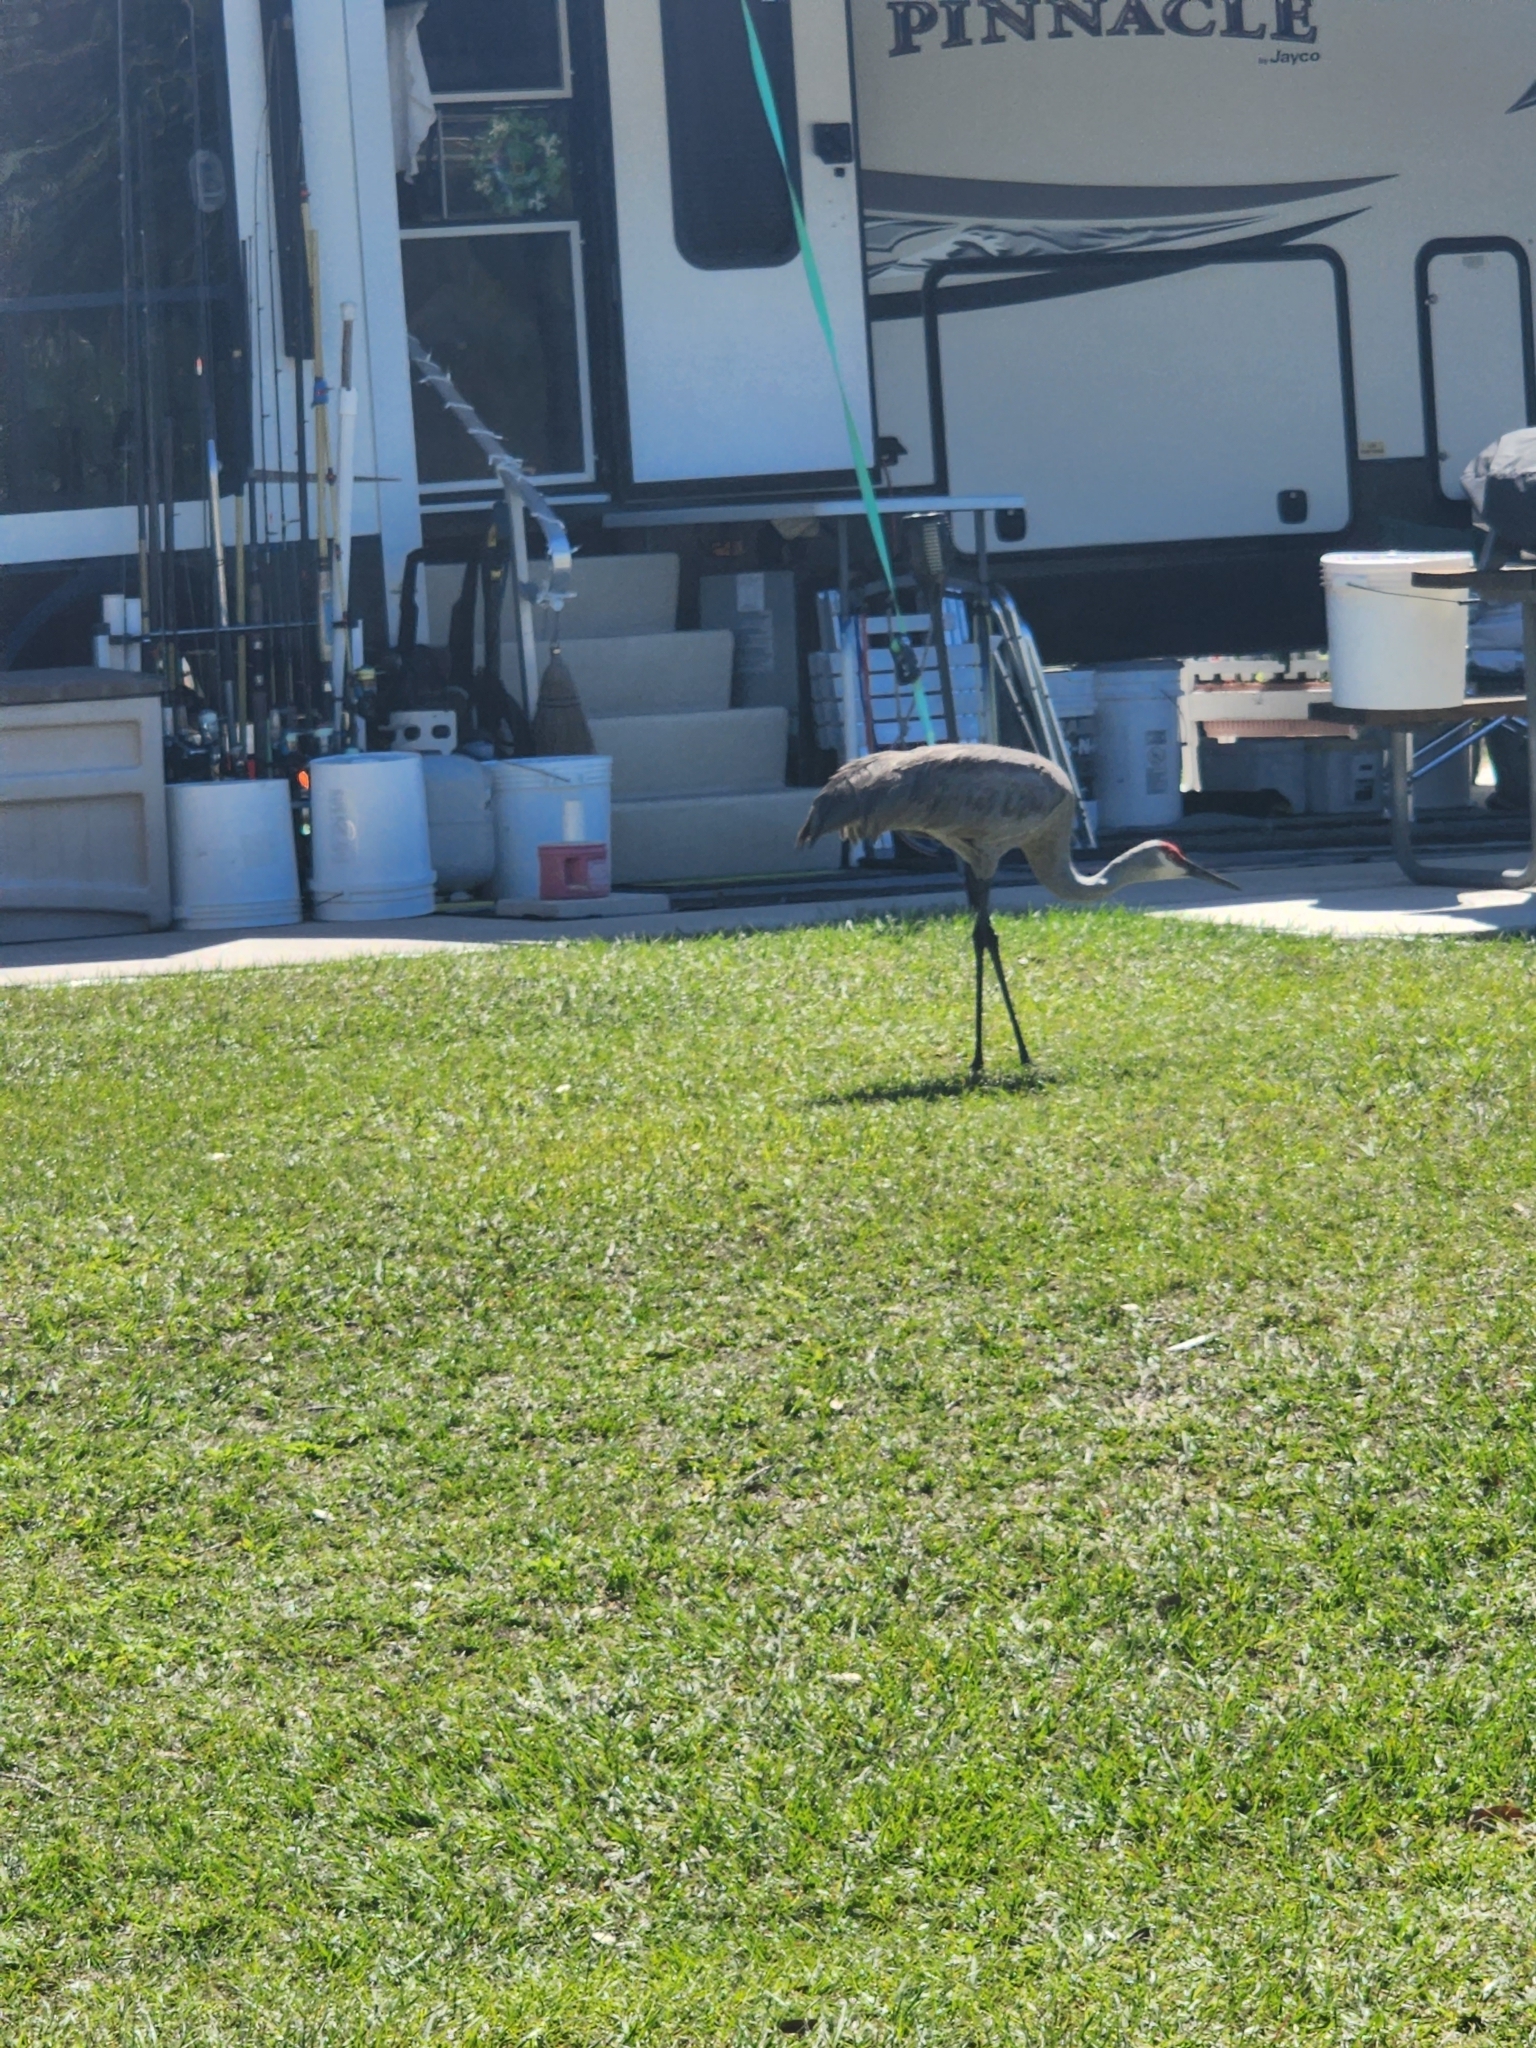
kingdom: Animalia
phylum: Chordata
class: Aves
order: Gruiformes
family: Gruidae
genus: Grus
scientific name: Grus canadensis
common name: Sandhill crane
